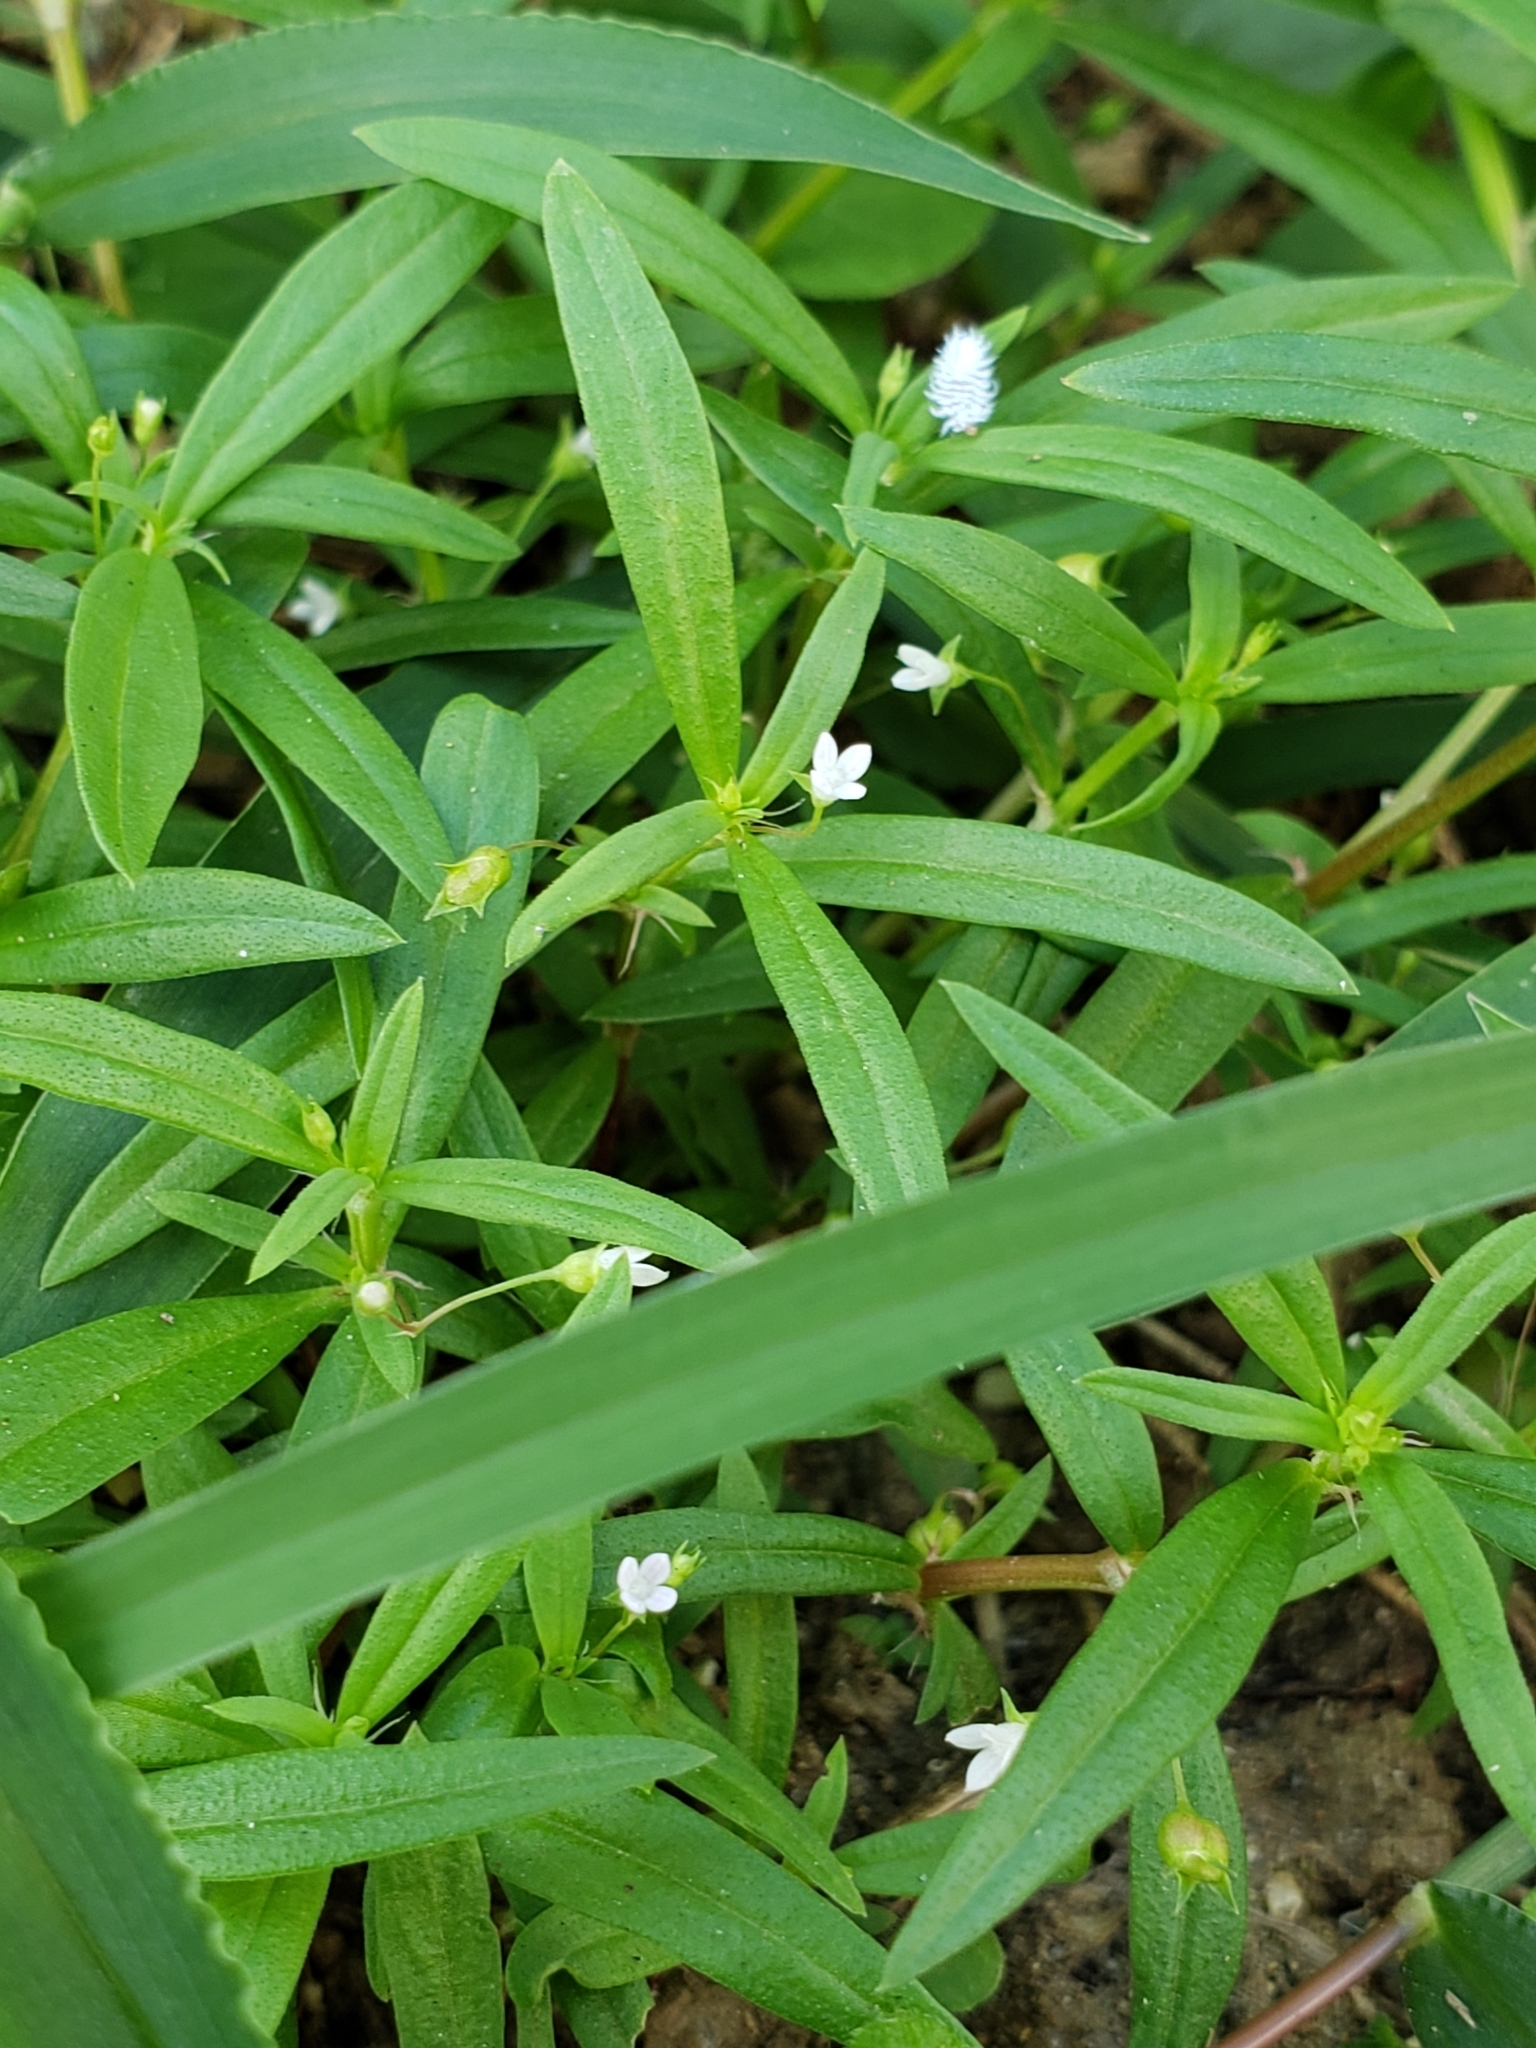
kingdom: Plantae
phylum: Tracheophyta
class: Magnoliopsida
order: Gentianales
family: Rubiaceae
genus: Oldenlandia
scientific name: Oldenlandia corymbosa
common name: Flat-top mille graines
